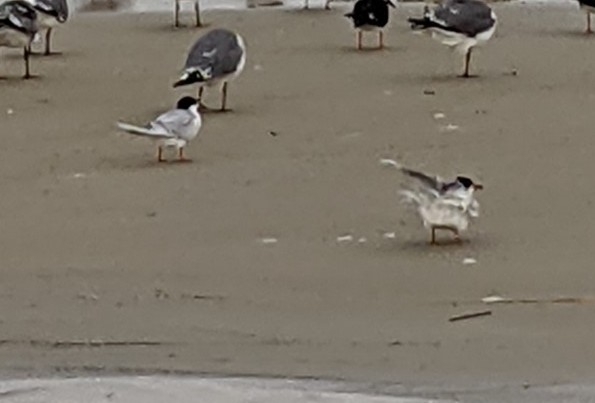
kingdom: Animalia
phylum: Chordata
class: Aves
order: Charadriiformes
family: Laridae
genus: Sterna
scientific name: Sterna forsteri
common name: Forster's tern
